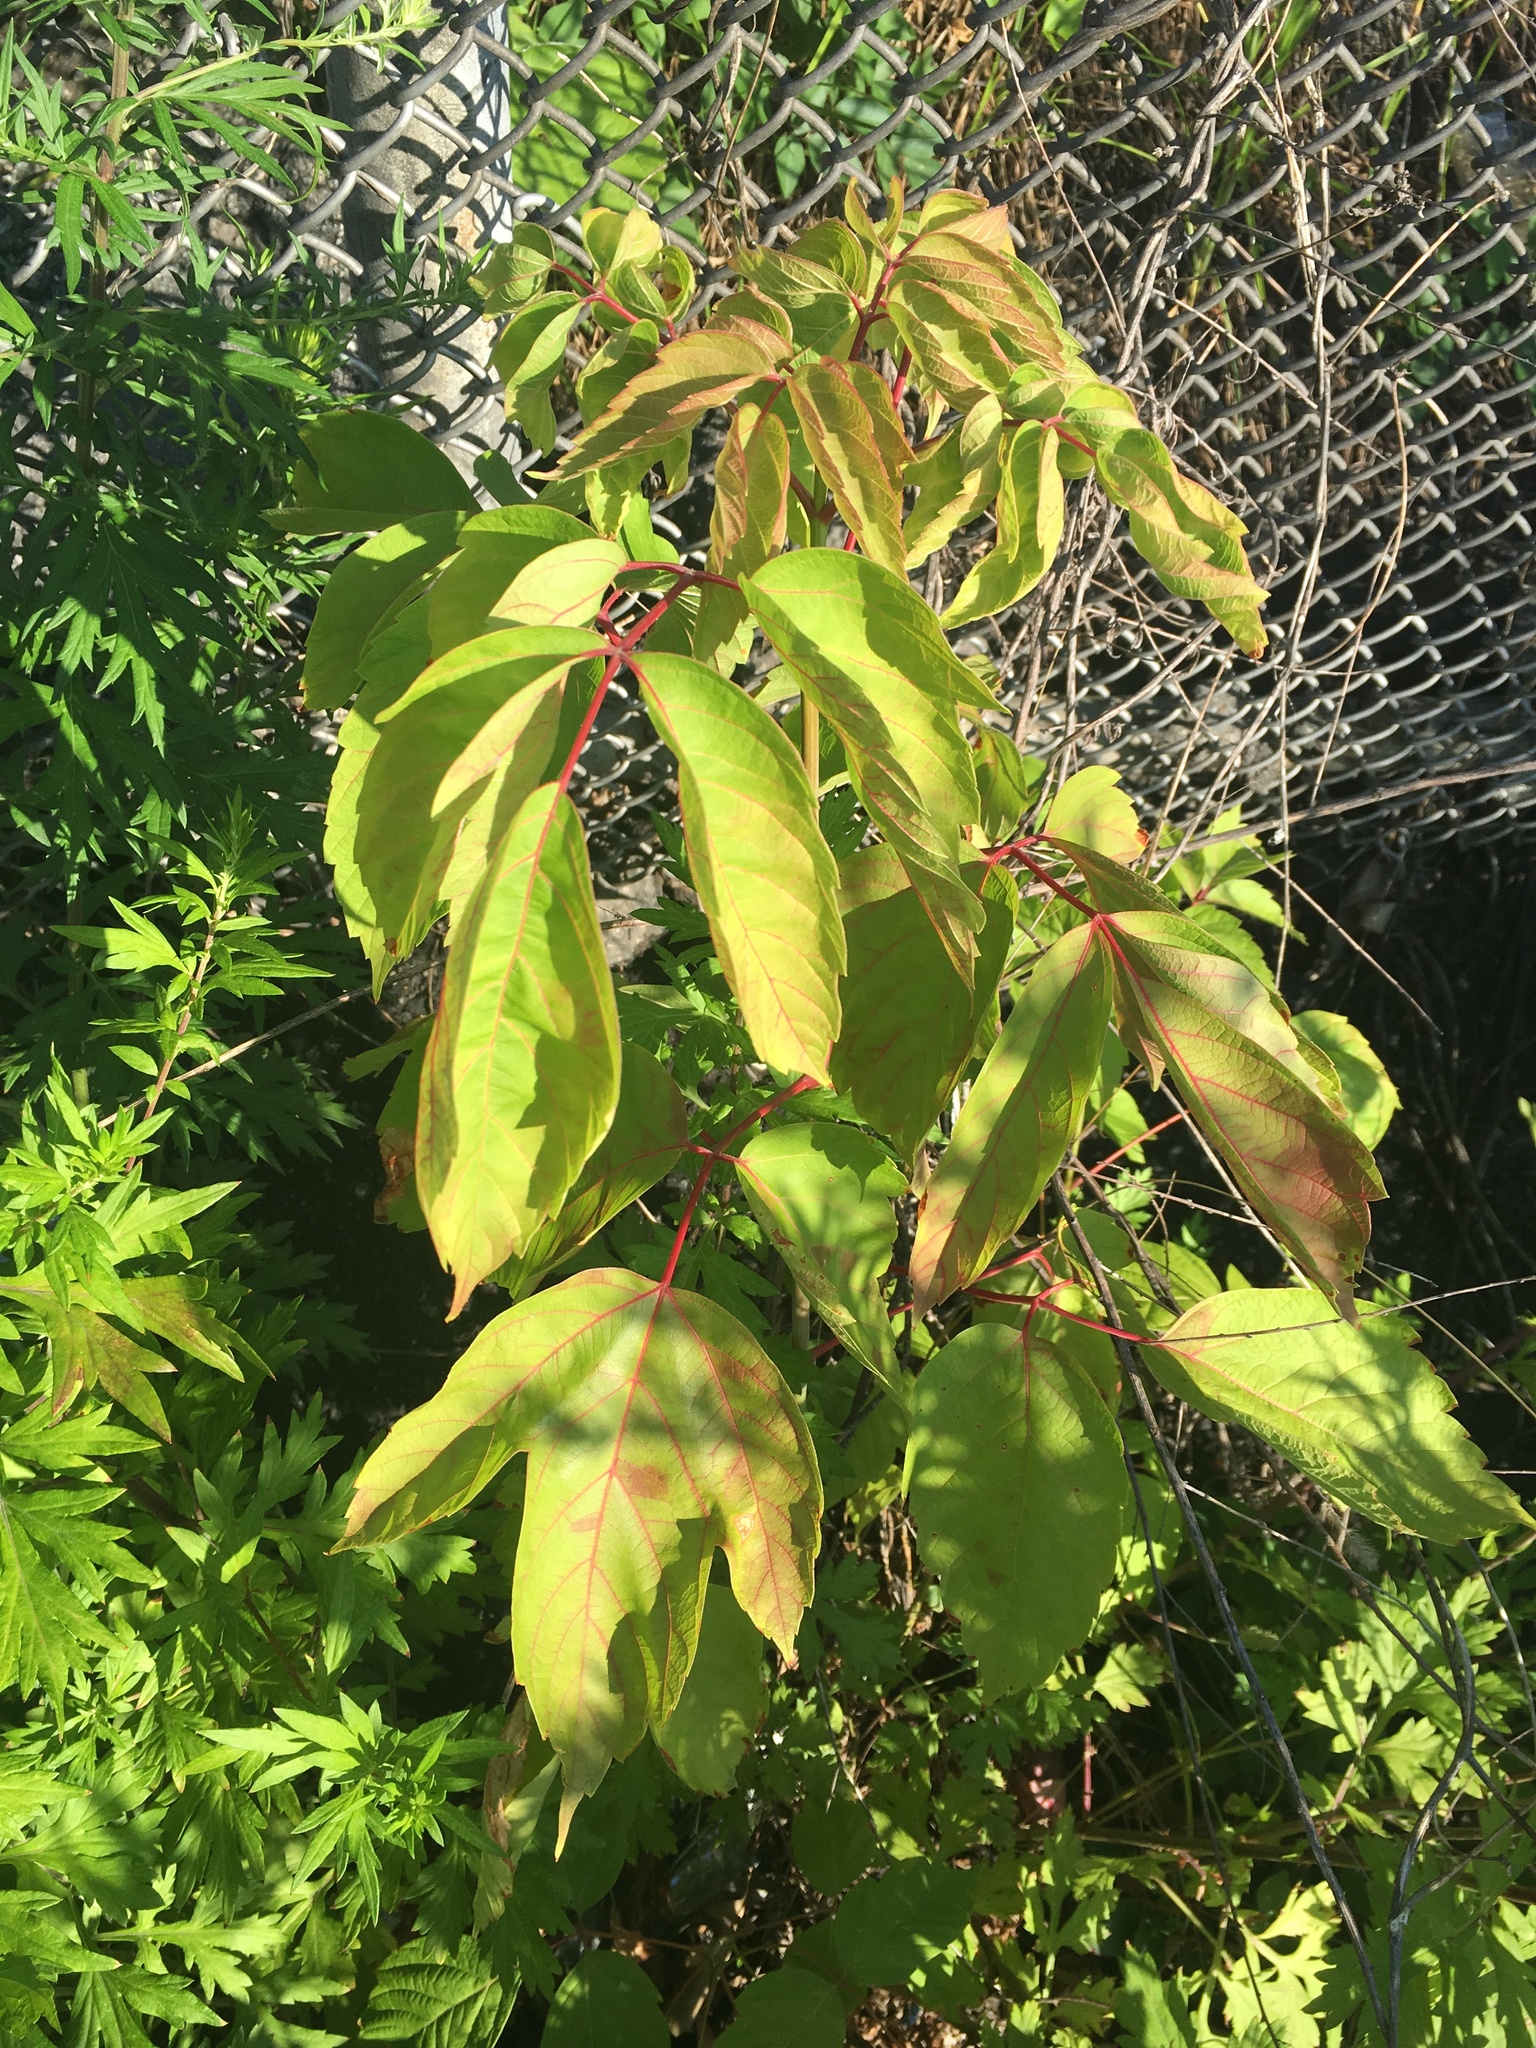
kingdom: Plantae
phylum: Tracheophyta
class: Magnoliopsida
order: Sapindales
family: Sapindaceae
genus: Acer
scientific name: Acer negundo
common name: Ashleaf maple
